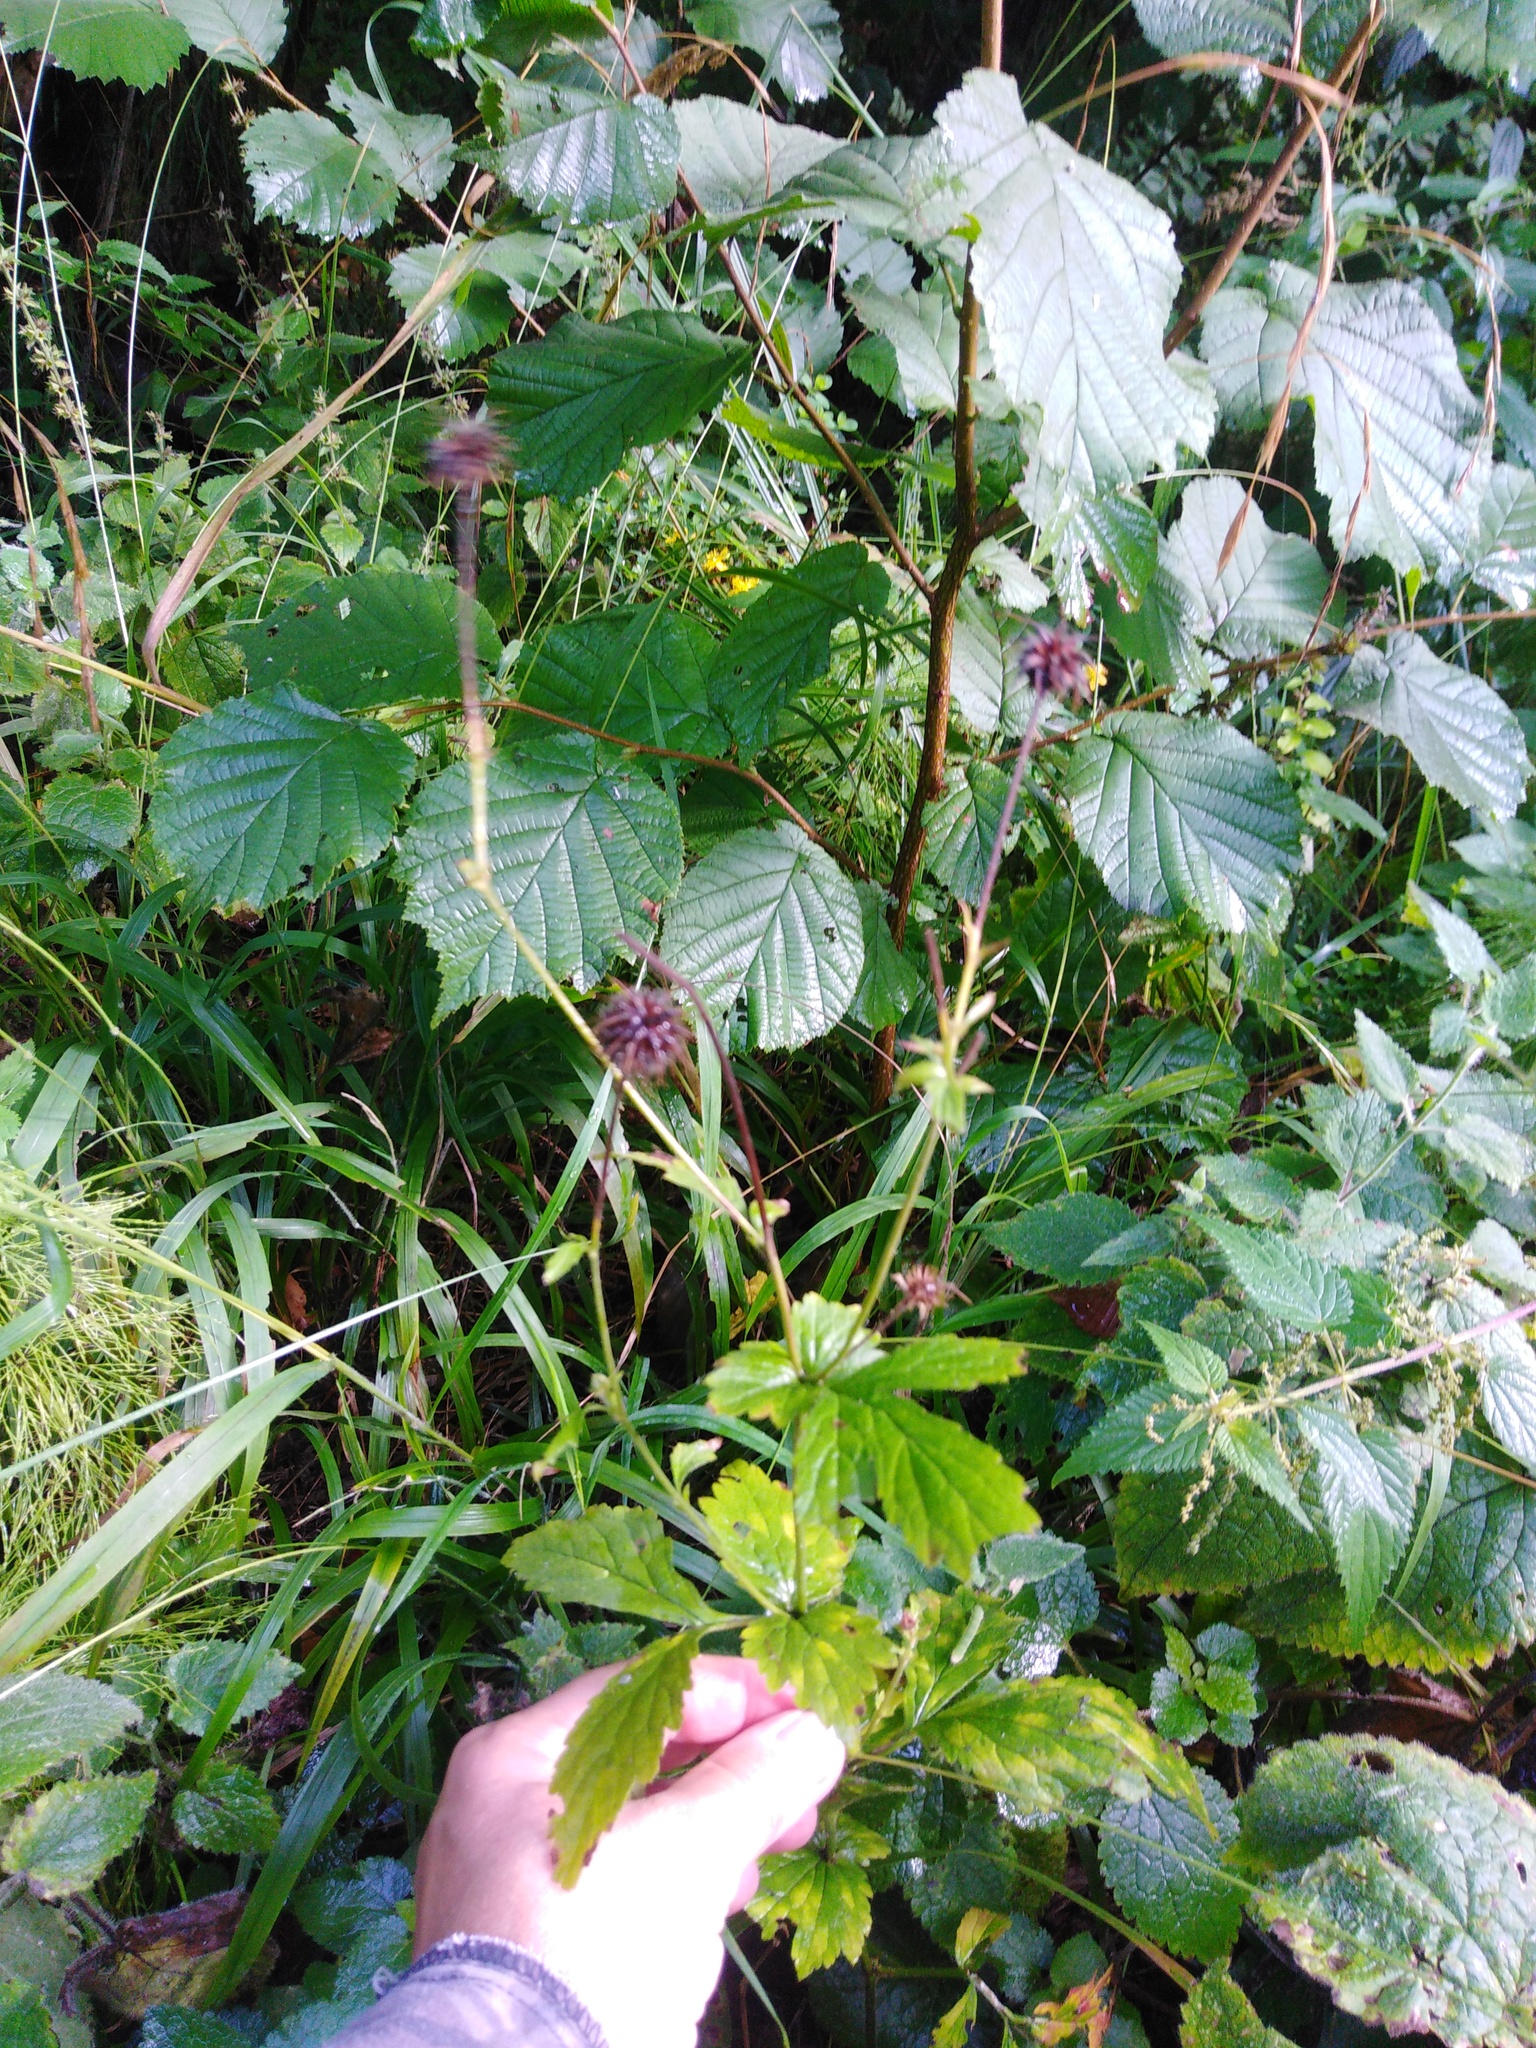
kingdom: Plantae
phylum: Tracheophyta
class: Magnoliopsida
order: Rosales
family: Rosaceae
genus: Geum
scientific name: Geum urbanum
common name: Wood avens
